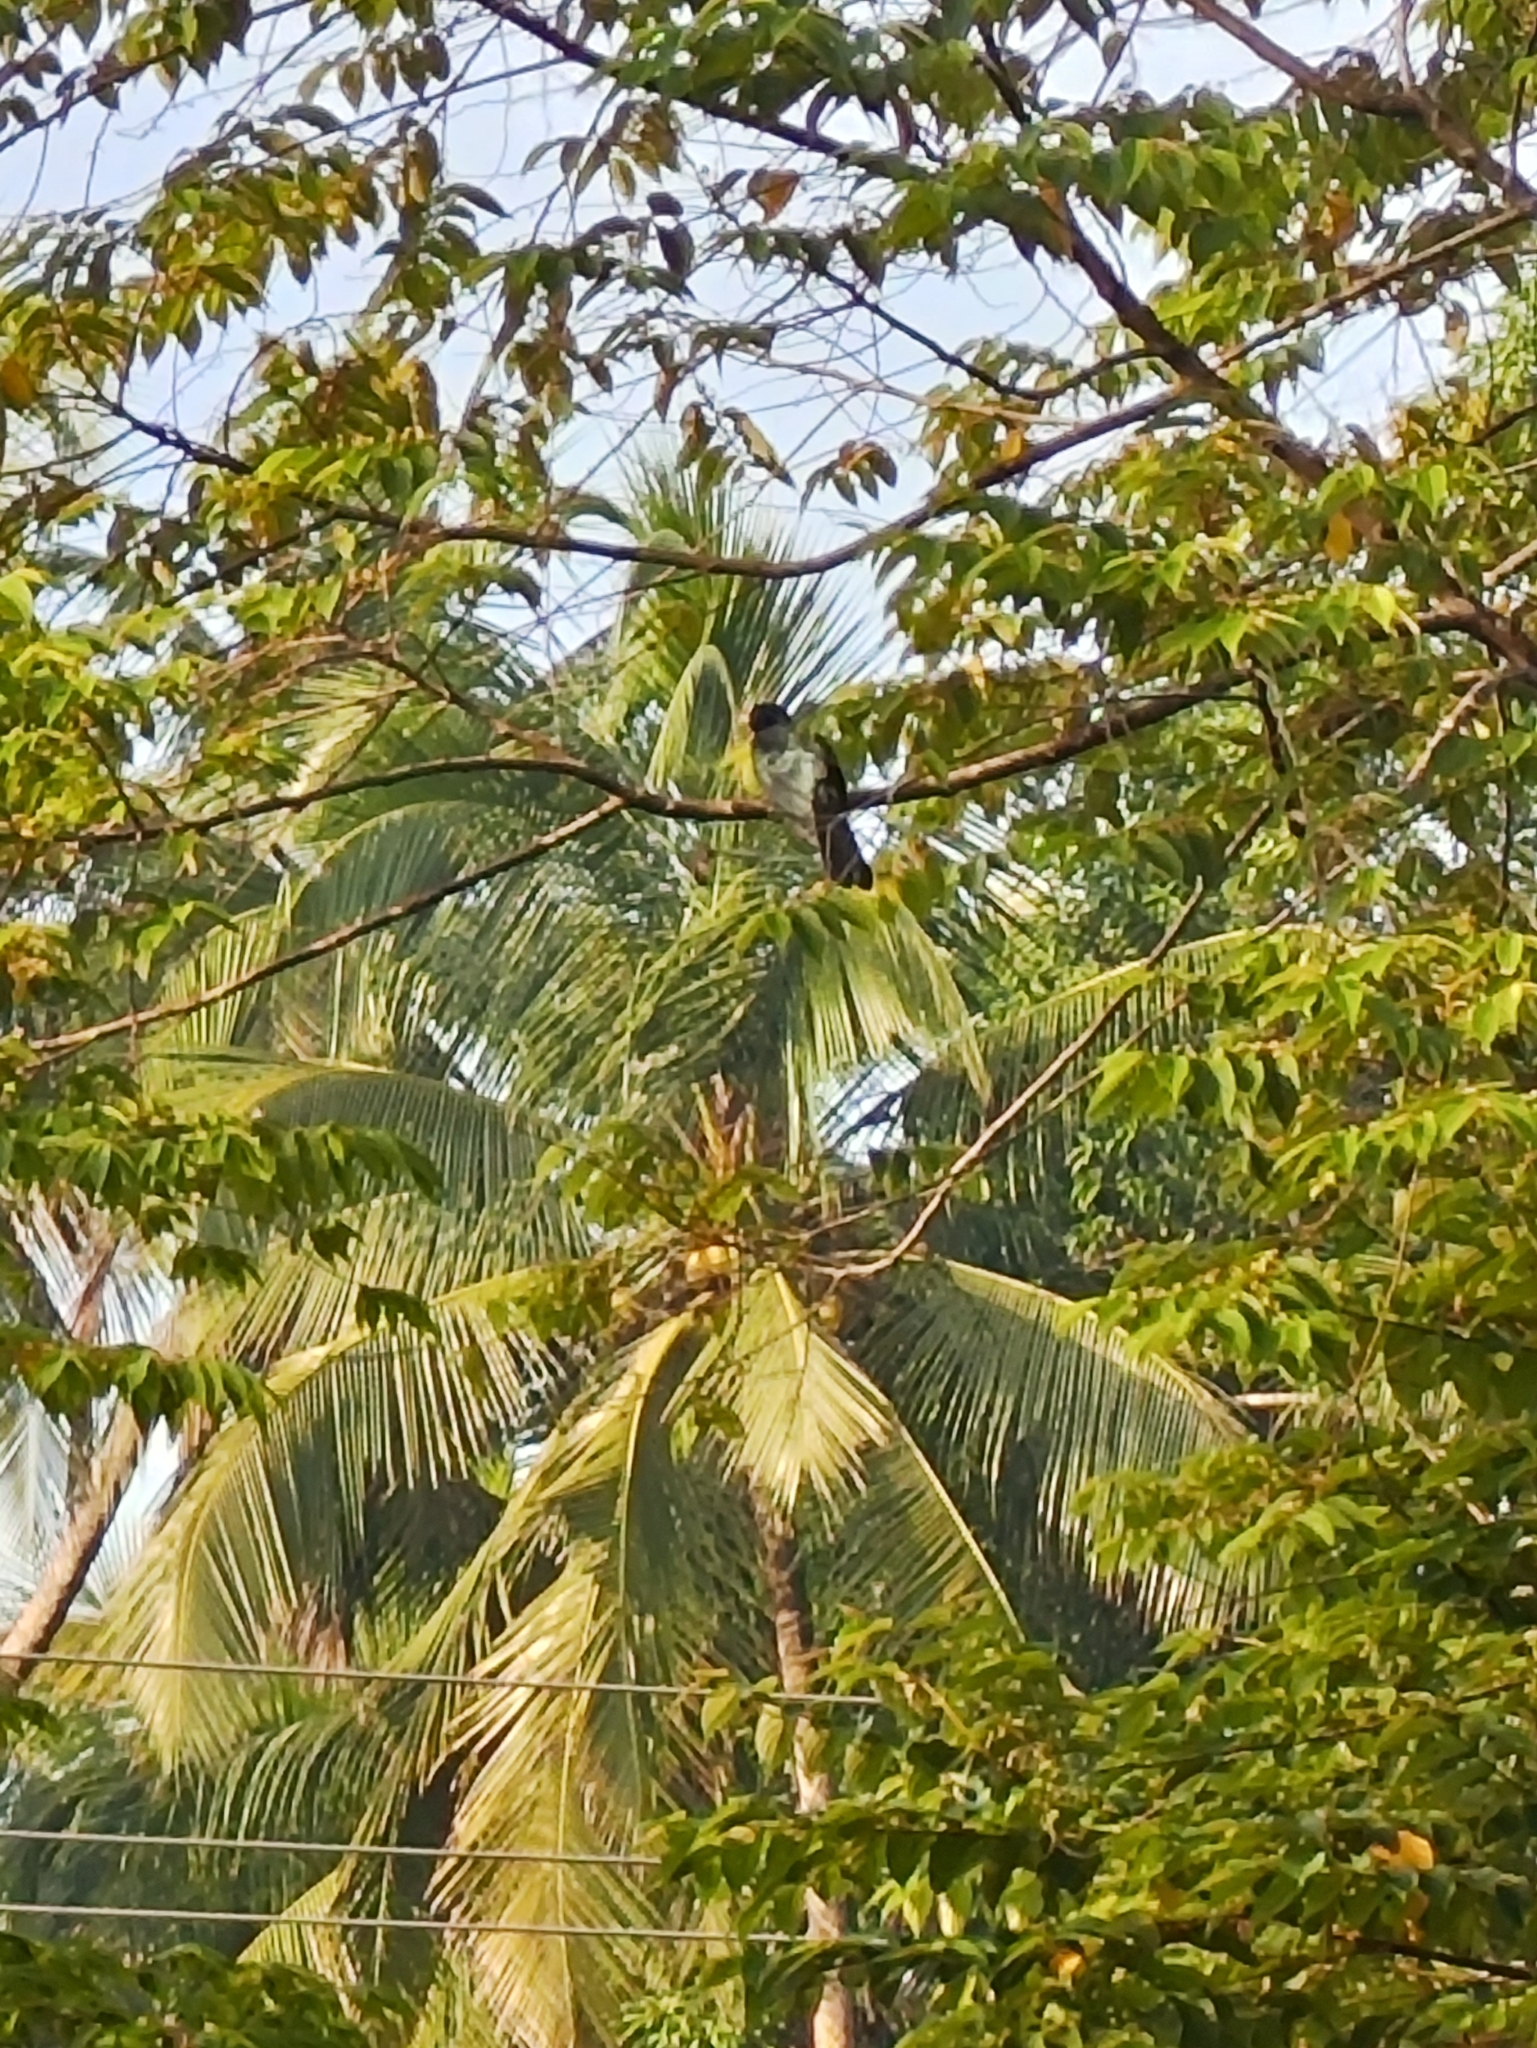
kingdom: Animalia
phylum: Chordata
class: Aves
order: Cuculiformes
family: Cuculidae
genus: Eudynamys
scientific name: Eudynamys scolopaceus
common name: Asian koel
